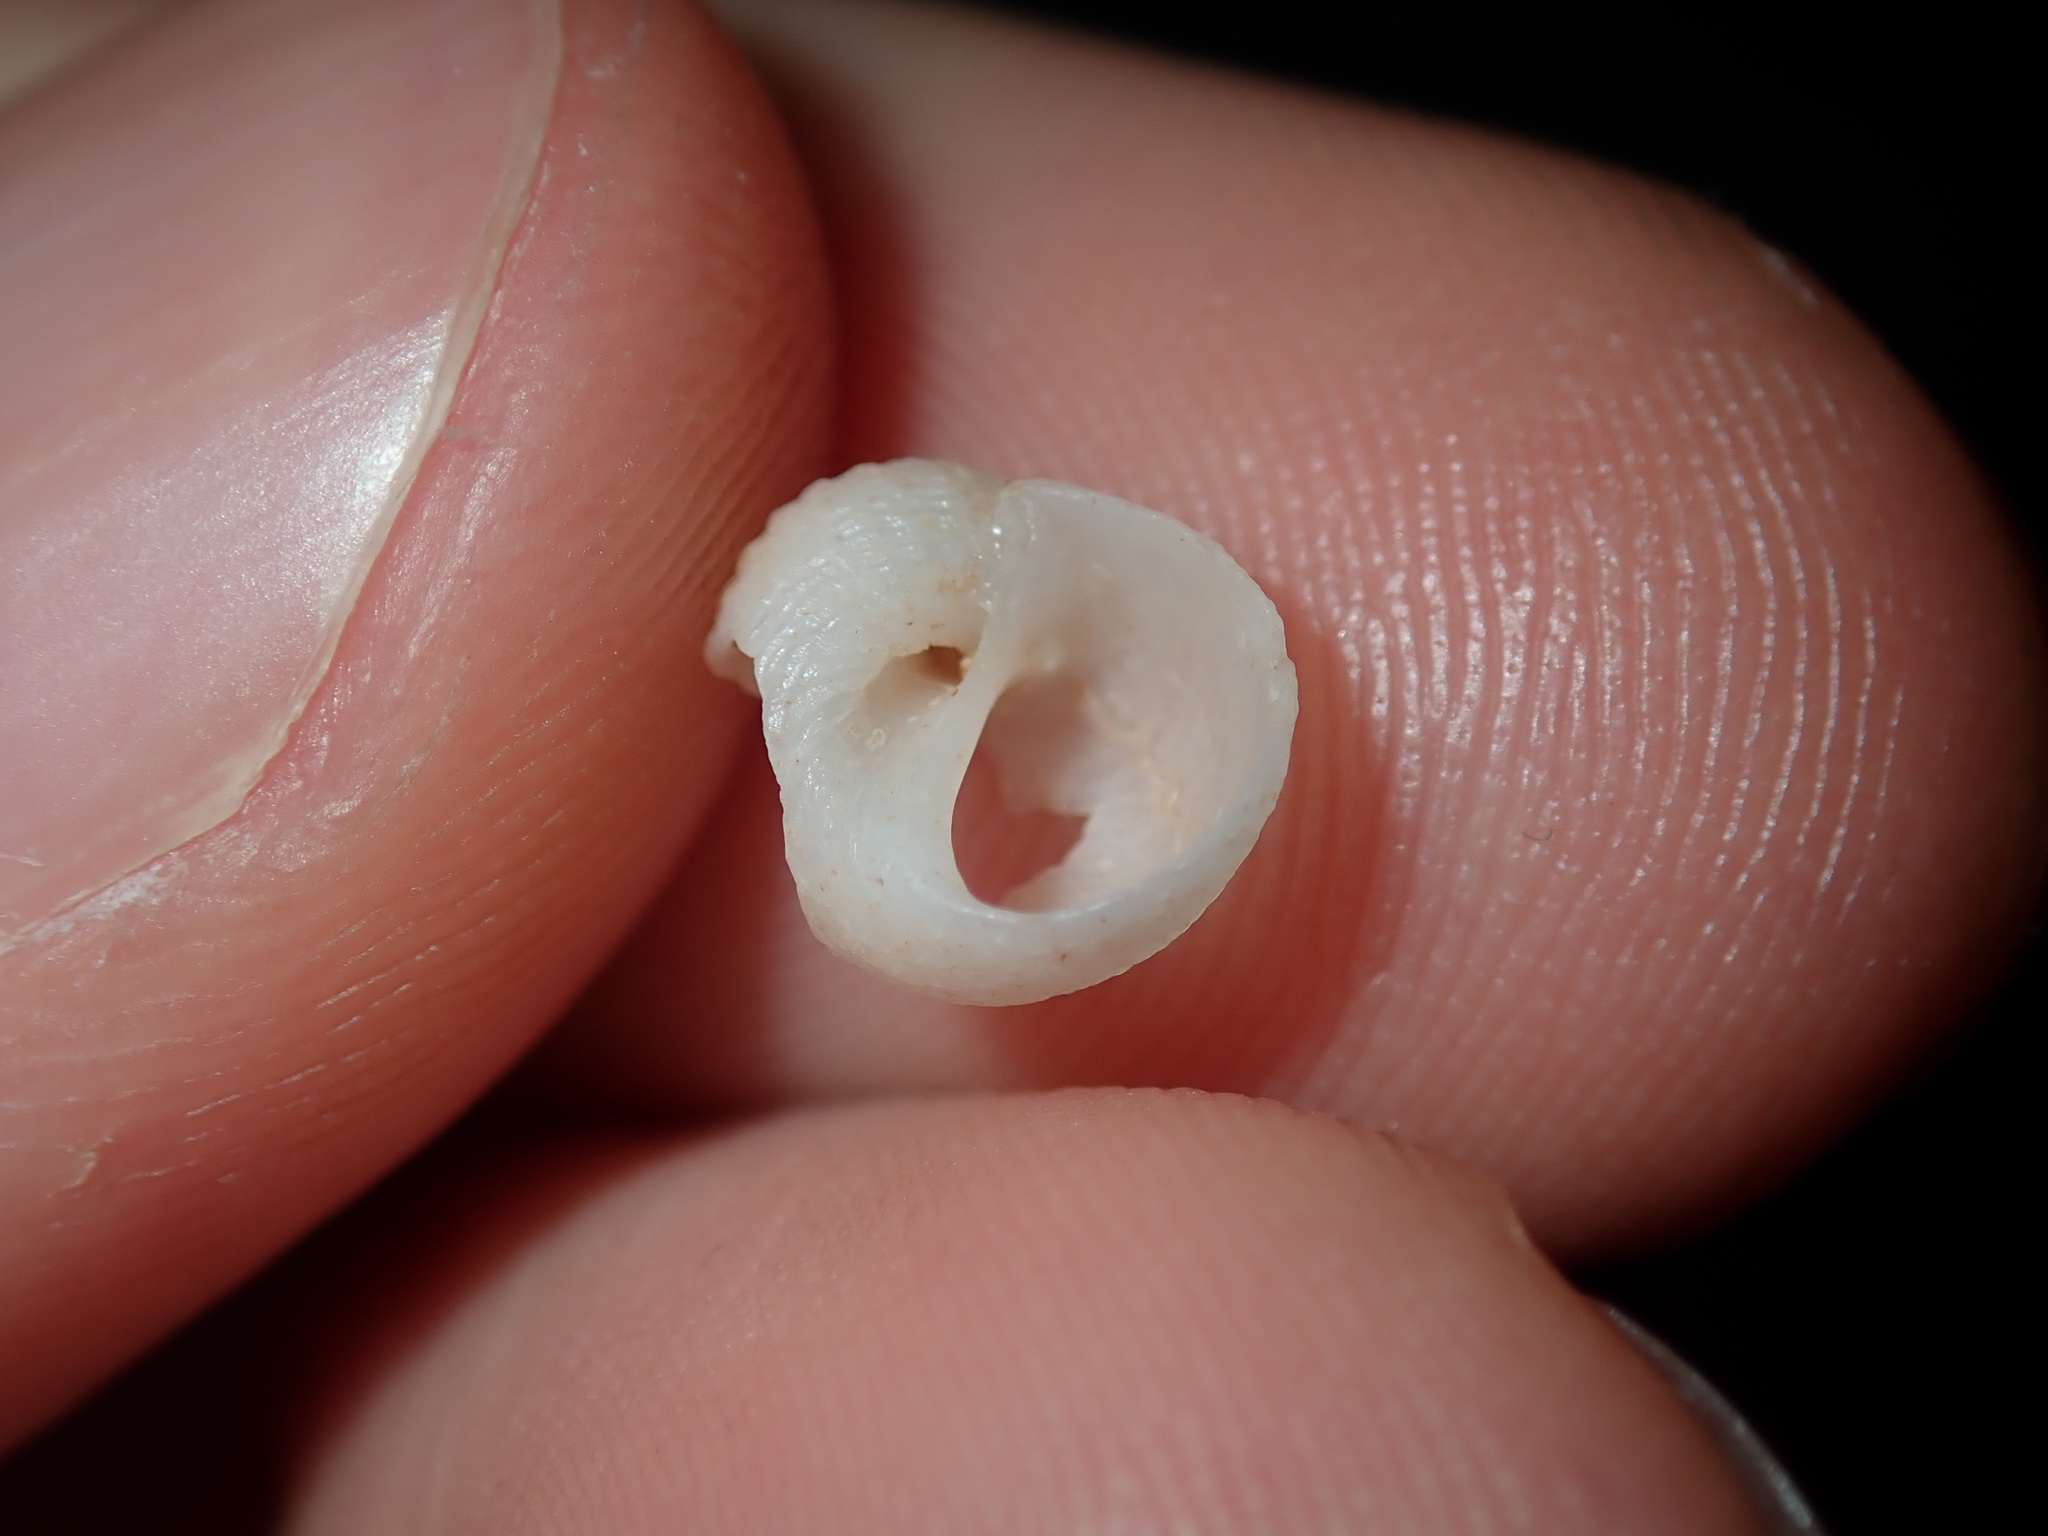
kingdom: Animalia
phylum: Mollusca
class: Gastropoda
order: Littorinimorpha
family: Naticidae
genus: Eunaticina
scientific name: Eunaticina linnaeana
